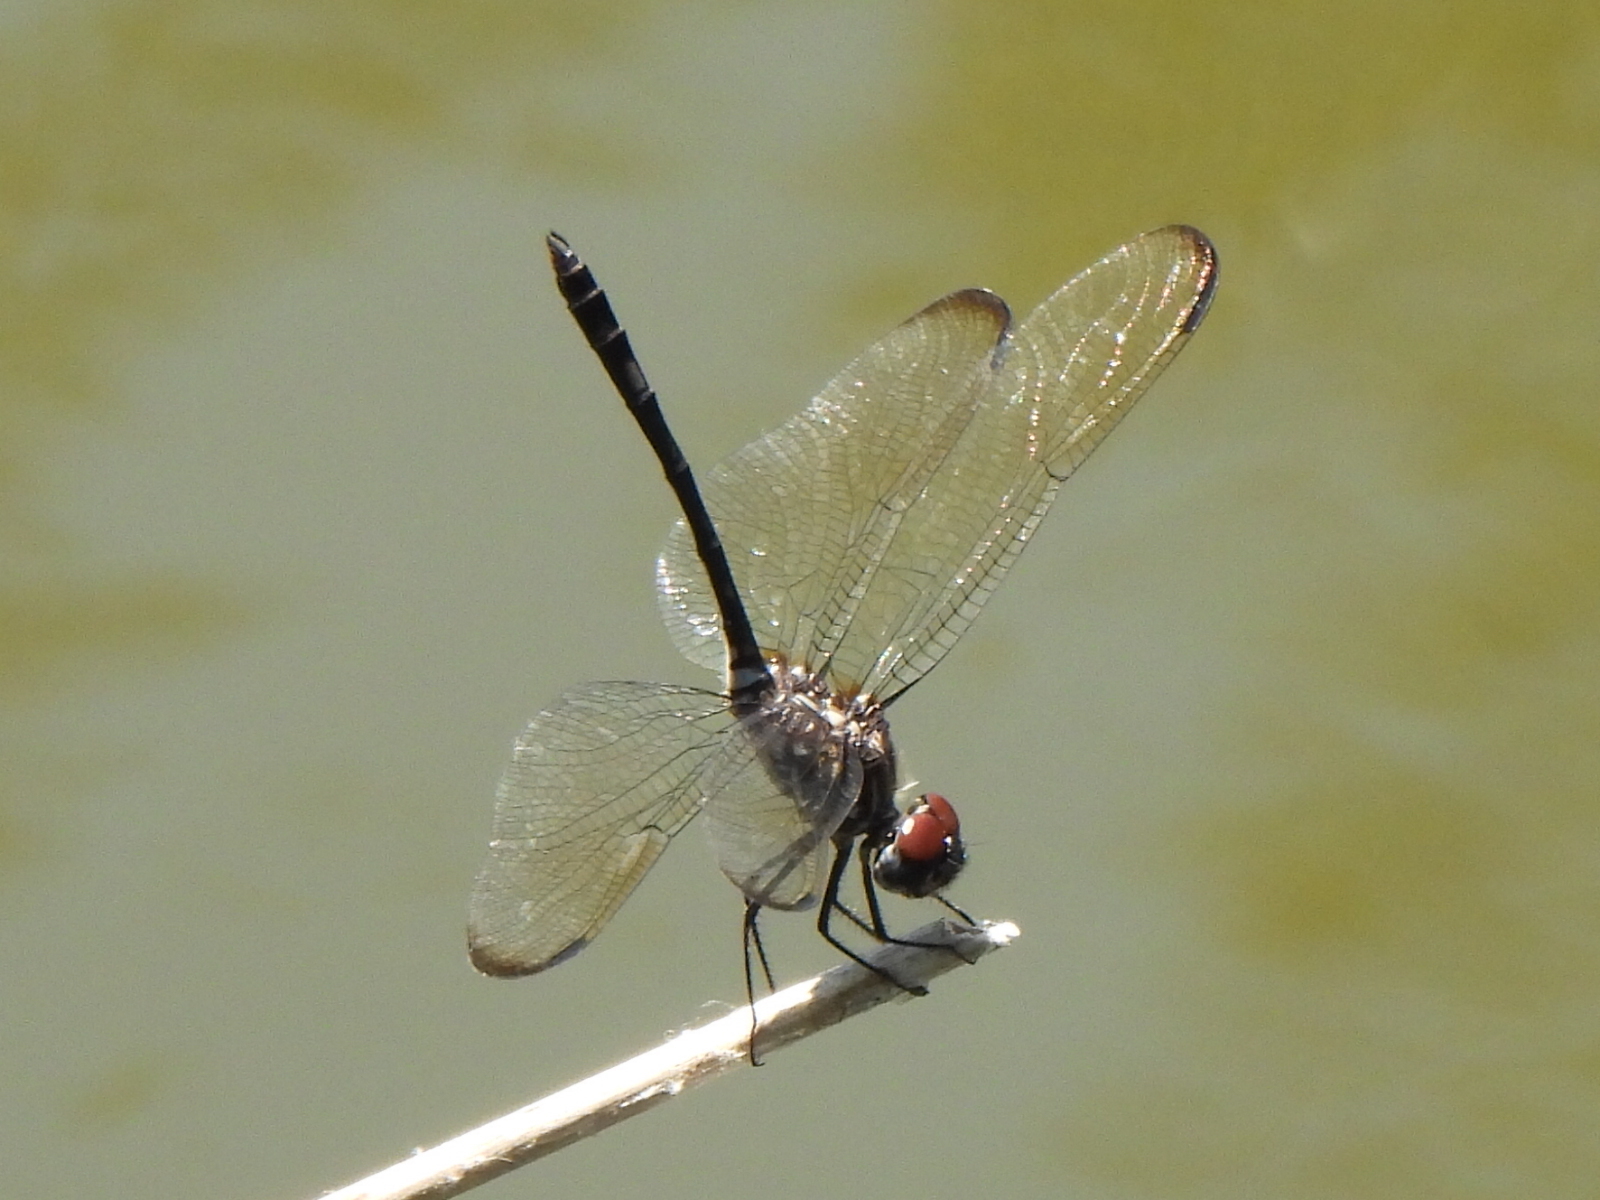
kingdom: Animalia
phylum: Arthropoda
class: Insecta
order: Odonata
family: Libellulidae
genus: Dythemis
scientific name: Dythemis velox
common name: Swift setwing
